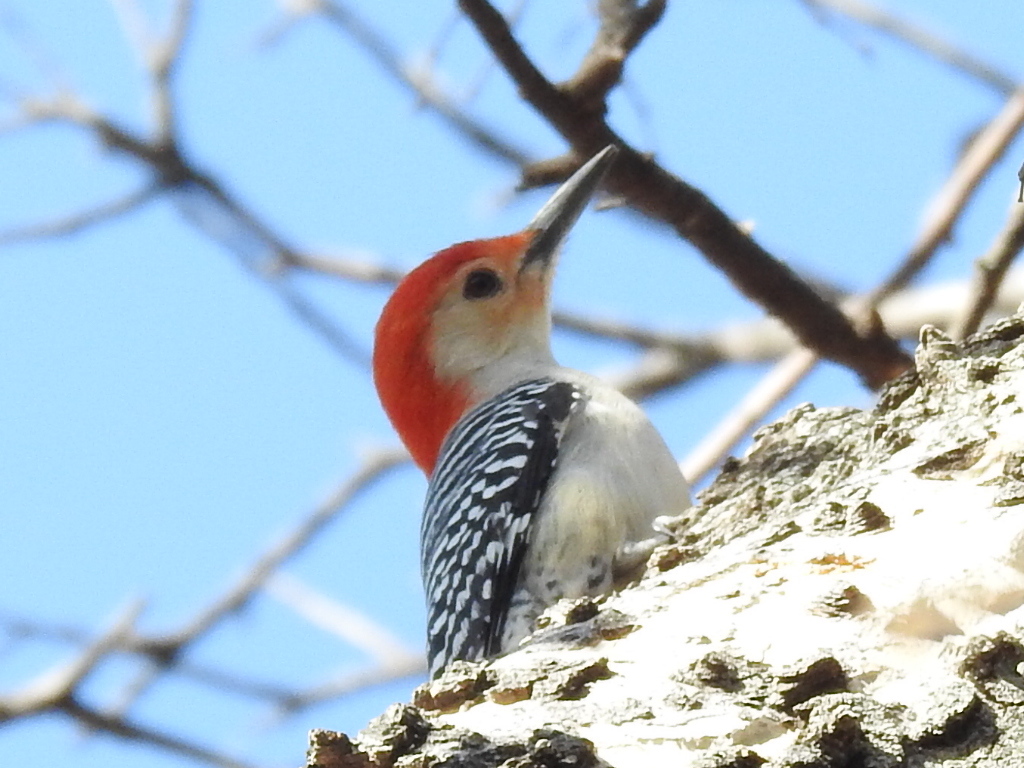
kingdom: Animalia
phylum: Chordata
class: Aves
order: Piciformes
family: Picidae
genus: Melanerpes
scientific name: Melanerpes carolinus
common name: Red-bellied woodpecker
